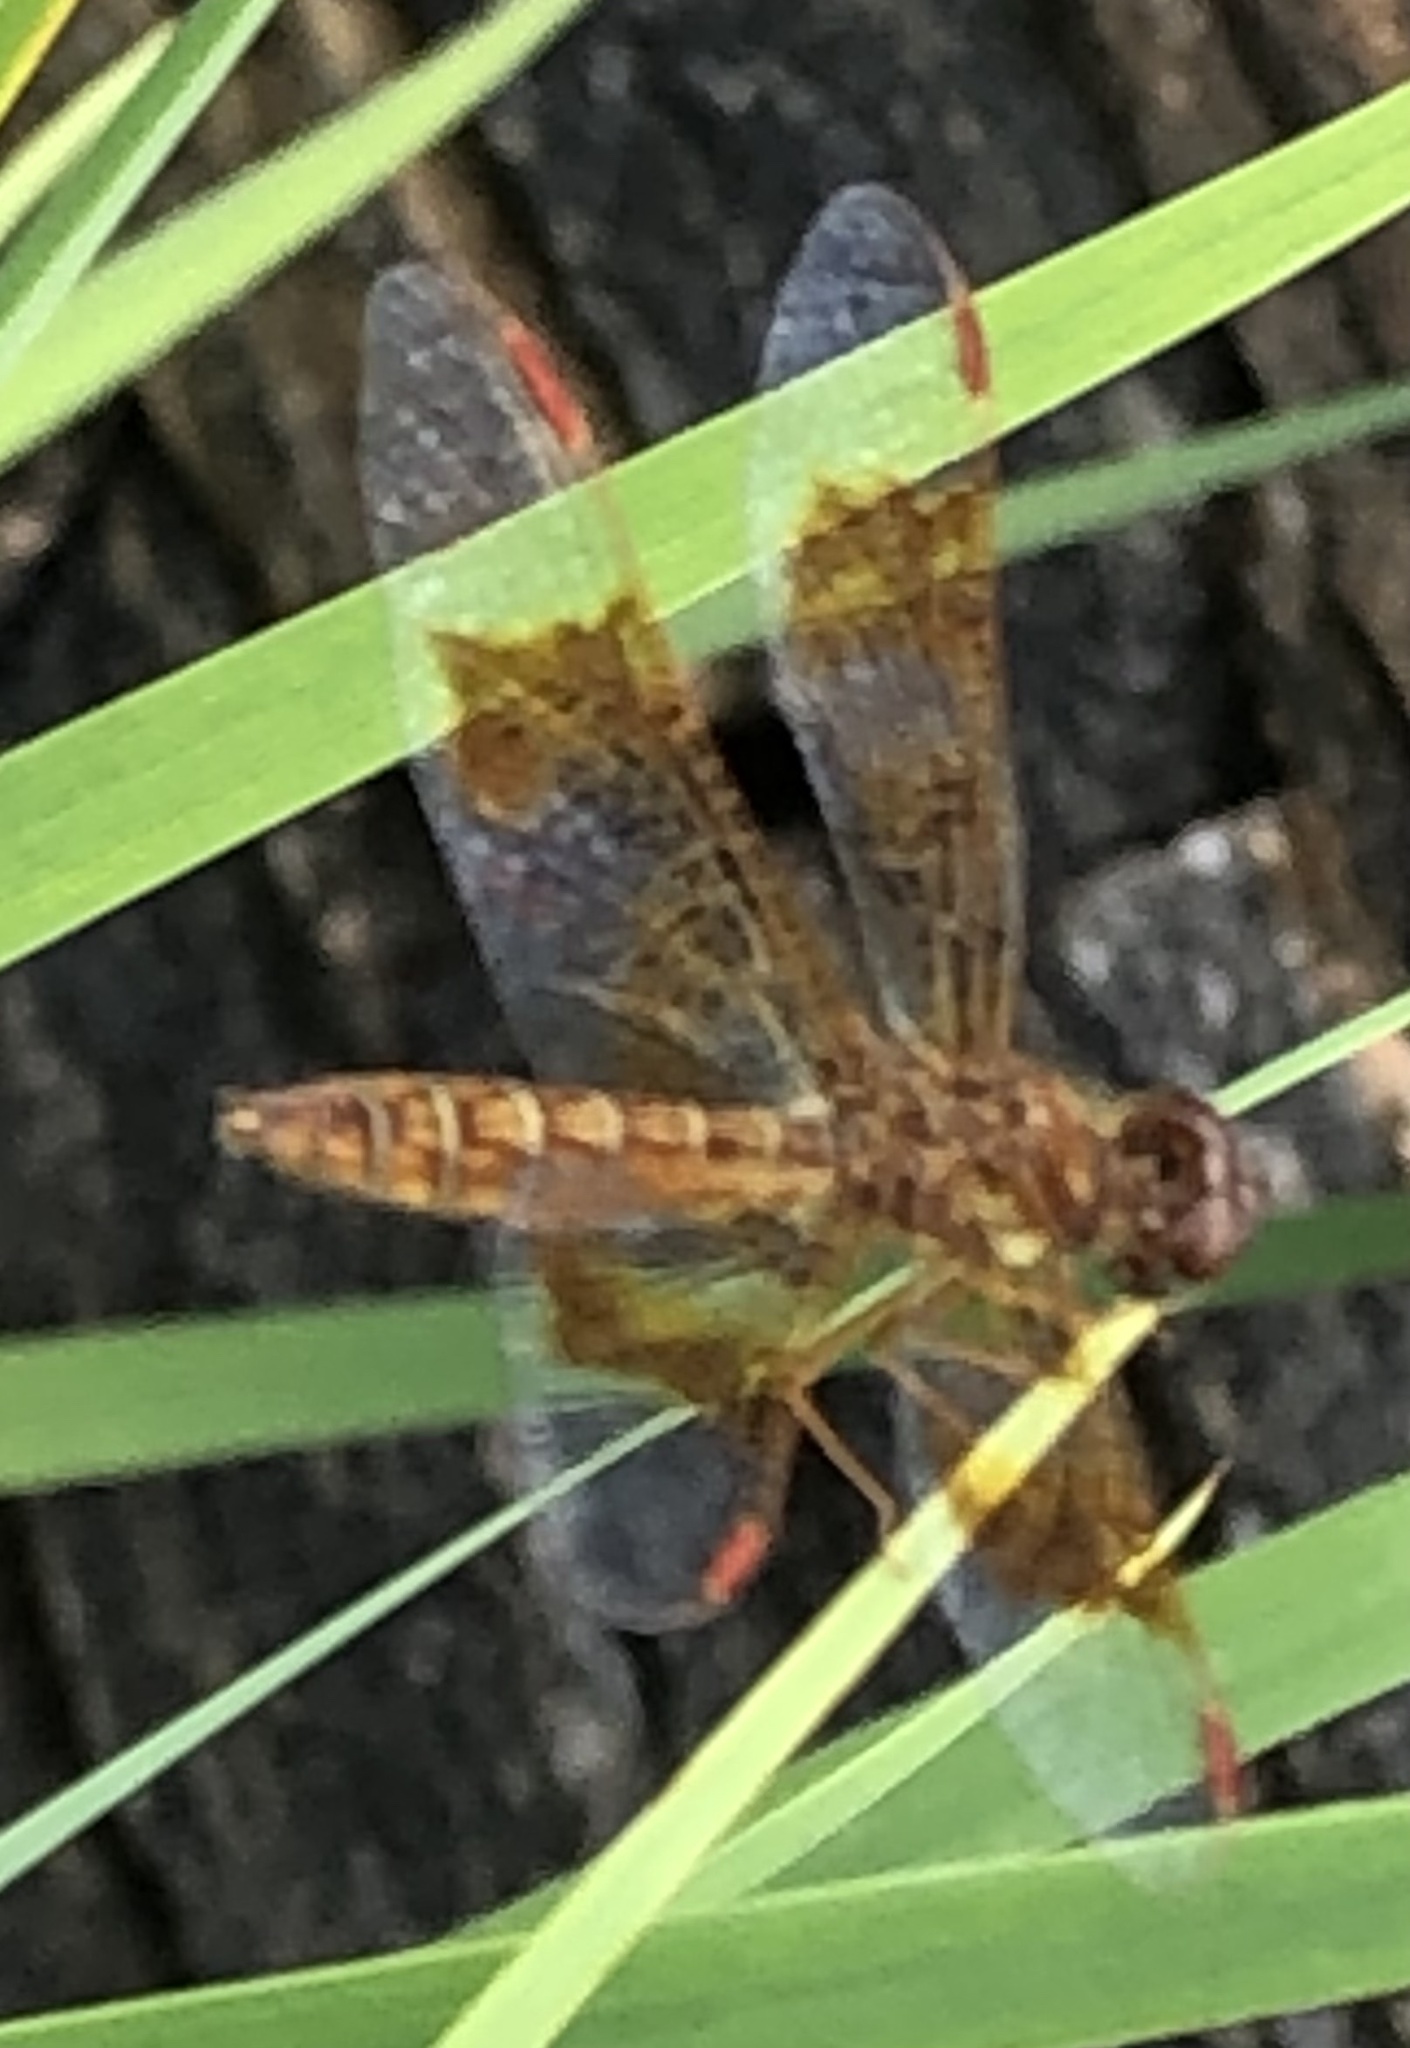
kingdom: Animalia
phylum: Arthropoda
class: Insecta
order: Odonata
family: Libellulidae
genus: Perithemis
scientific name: Perithemis tenera
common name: Eastern amberwing
